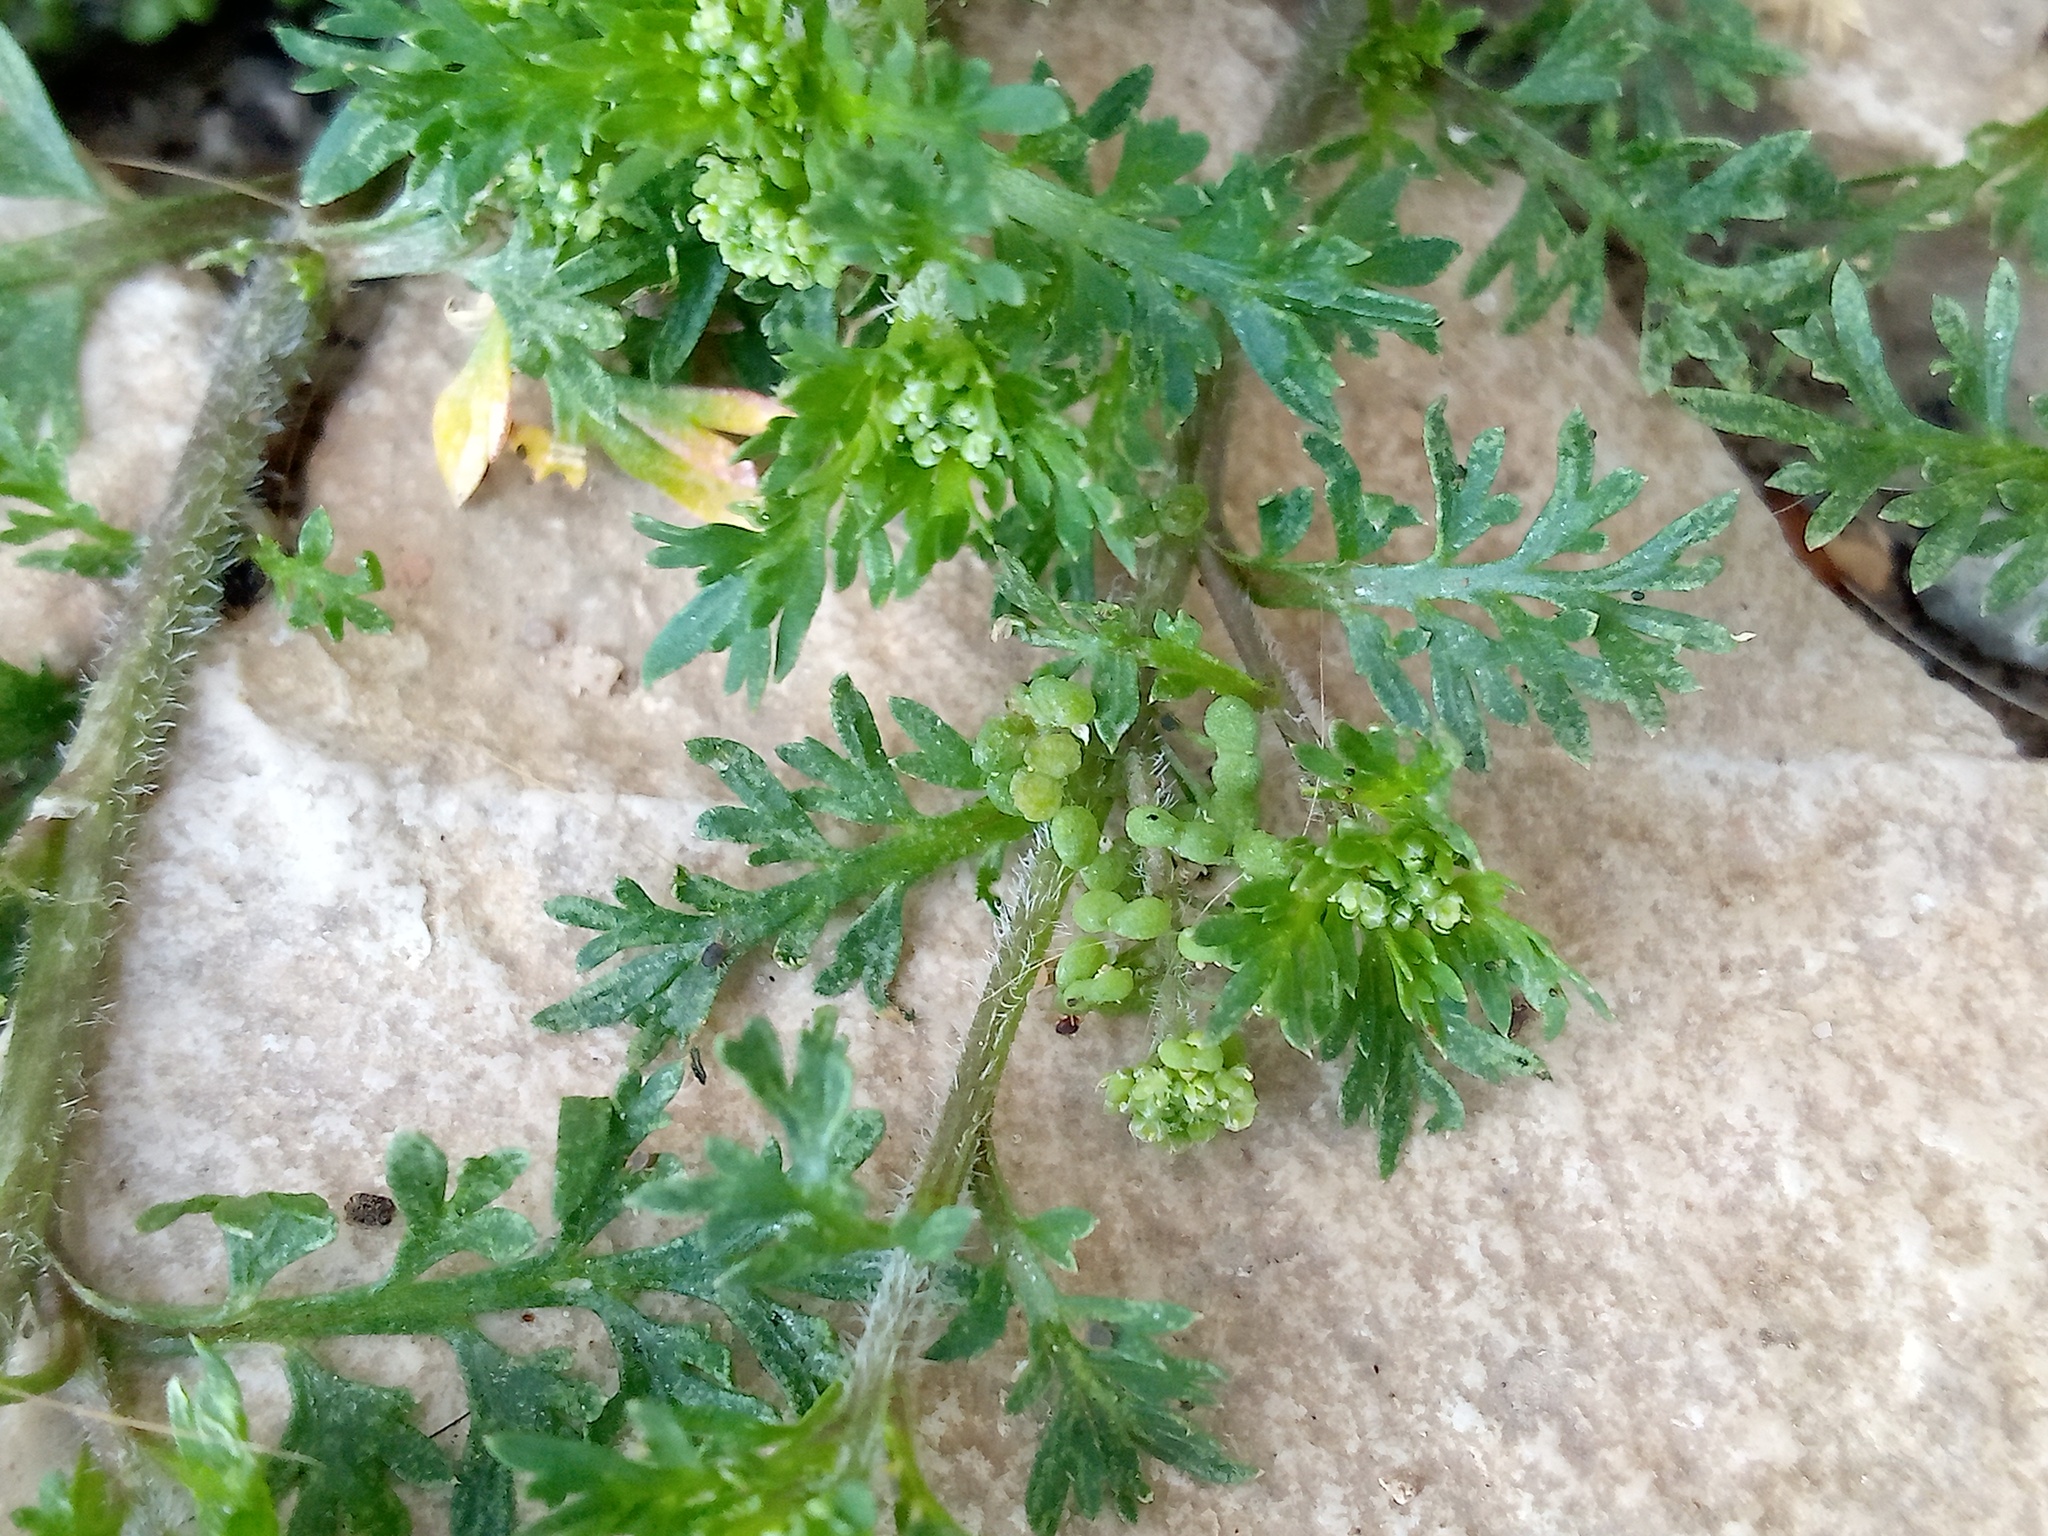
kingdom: Plantae
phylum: Tracheophyta
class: Magnoliopsida
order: Brassicales
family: Brassicaceae
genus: Lepidium
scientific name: Lepidium didymum
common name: Lesser swinecress
